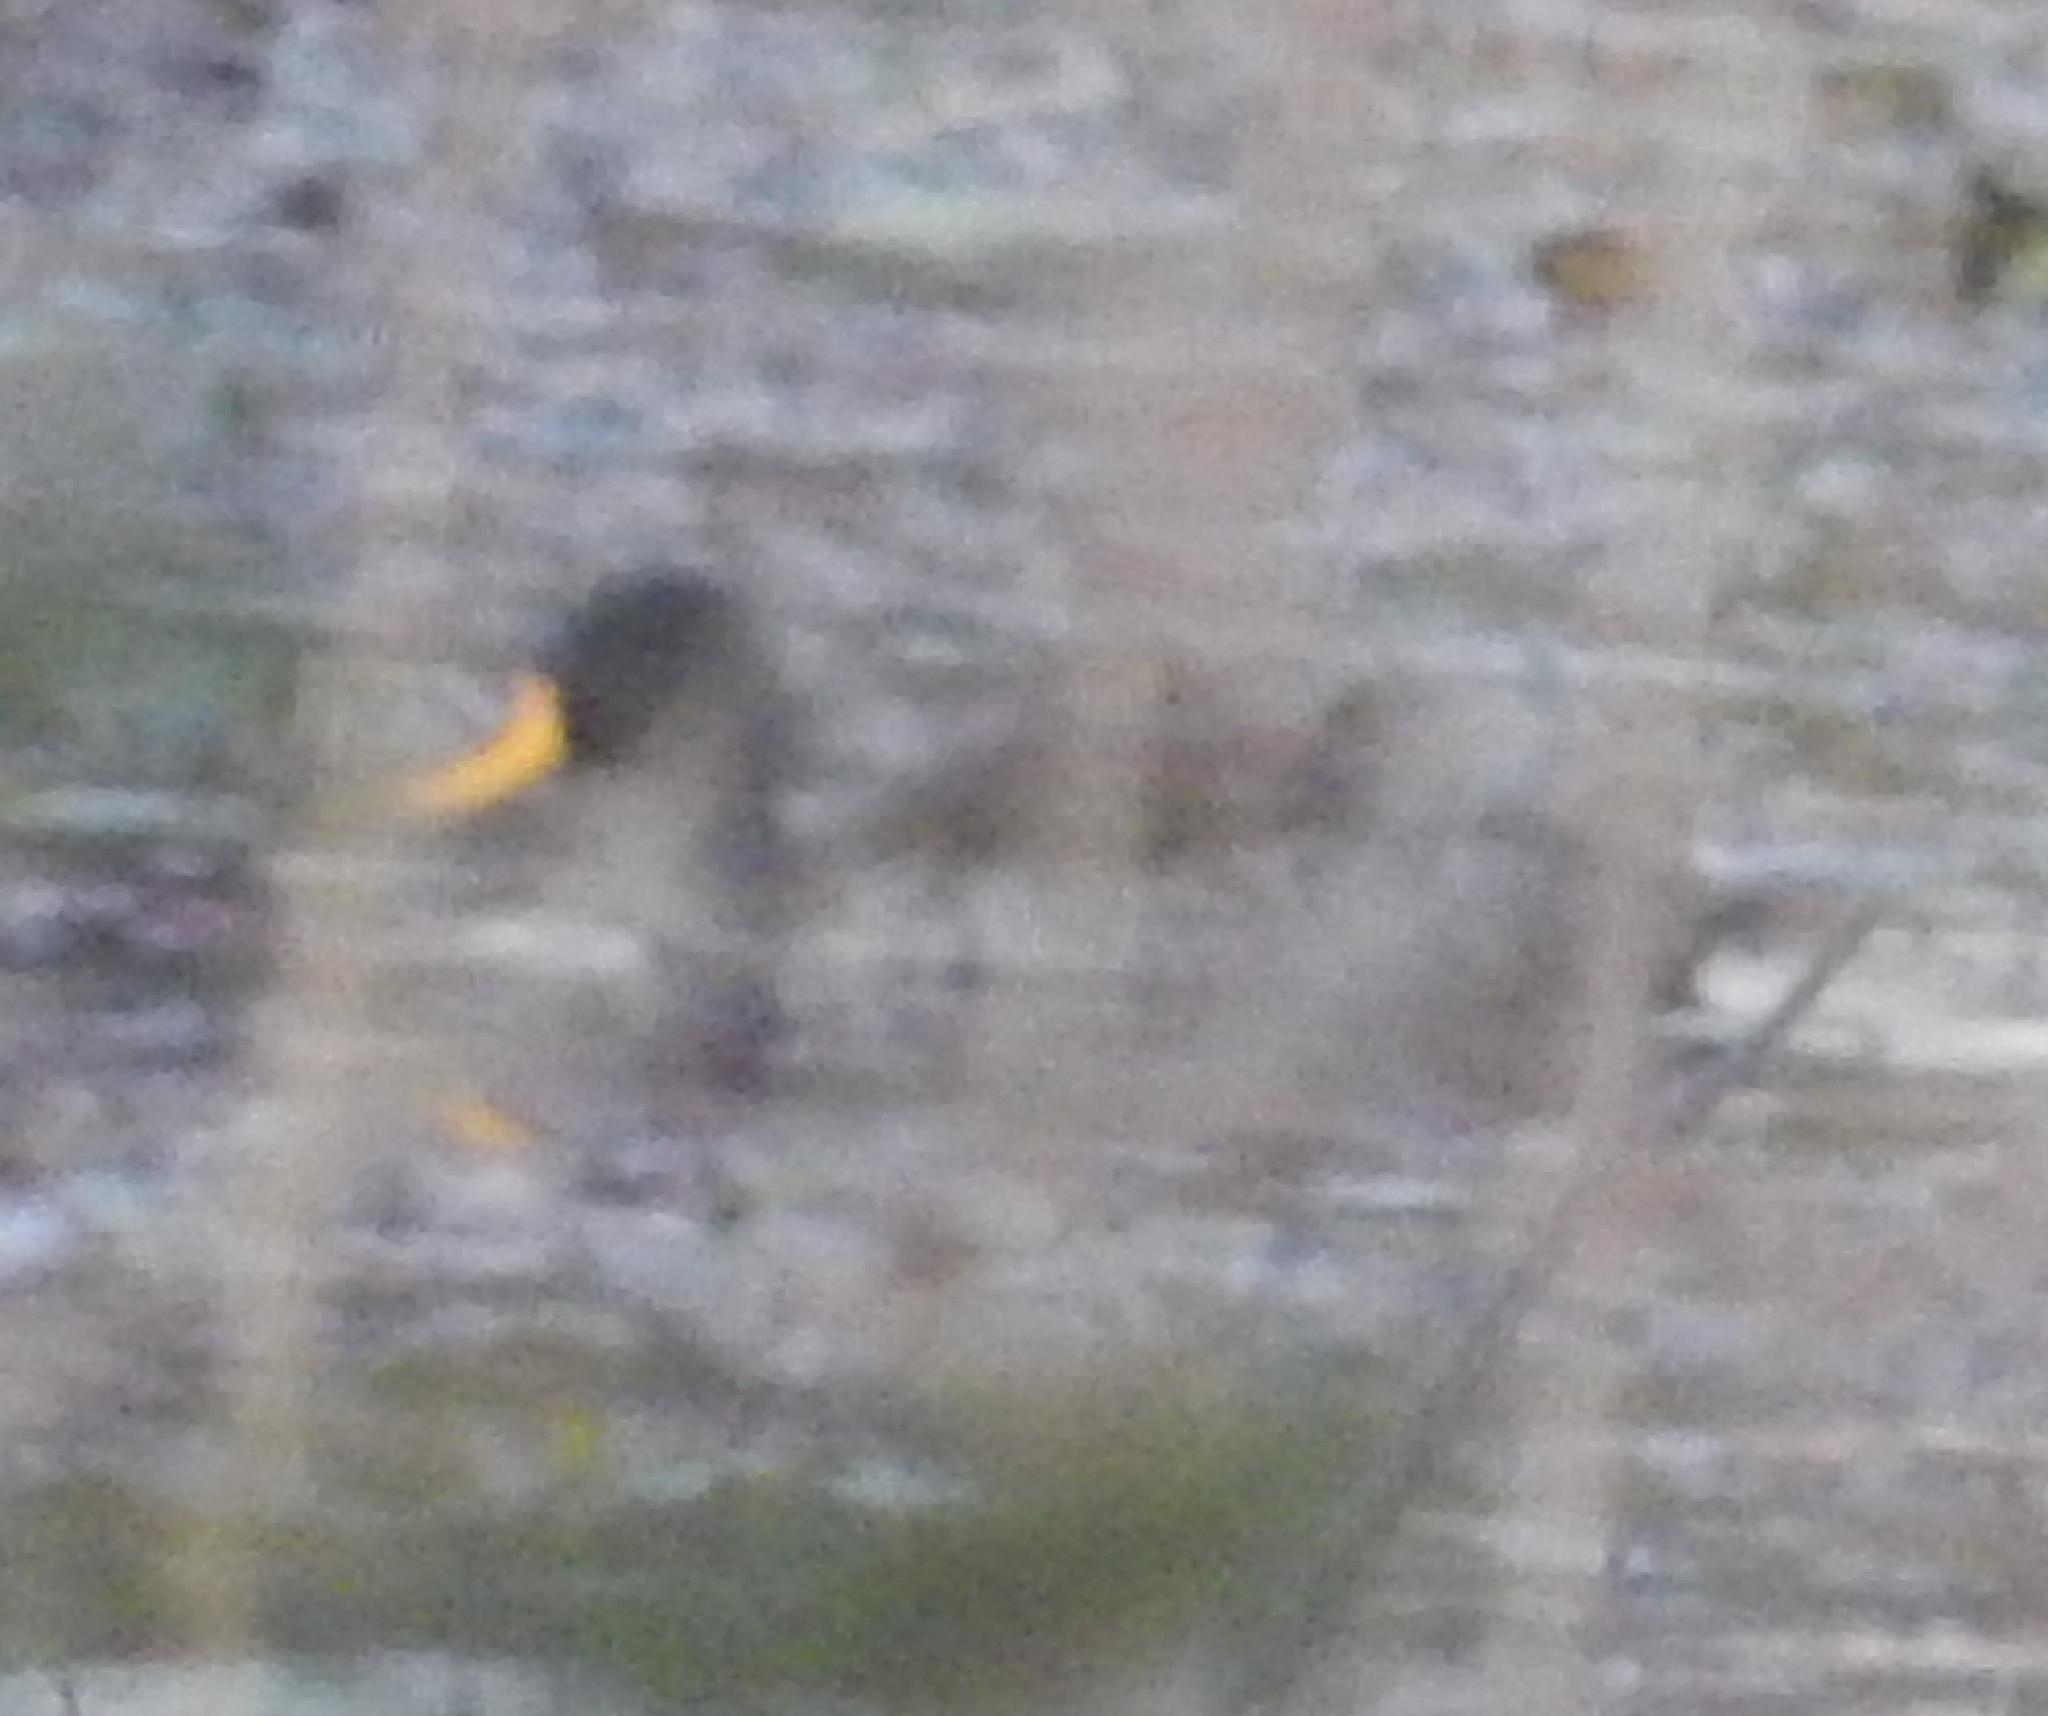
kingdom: Animalia
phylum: Chordata
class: Aves
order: Anseriformes
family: Anatidae
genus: Anas
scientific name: Anas undulata
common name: Yellow-billed duck
